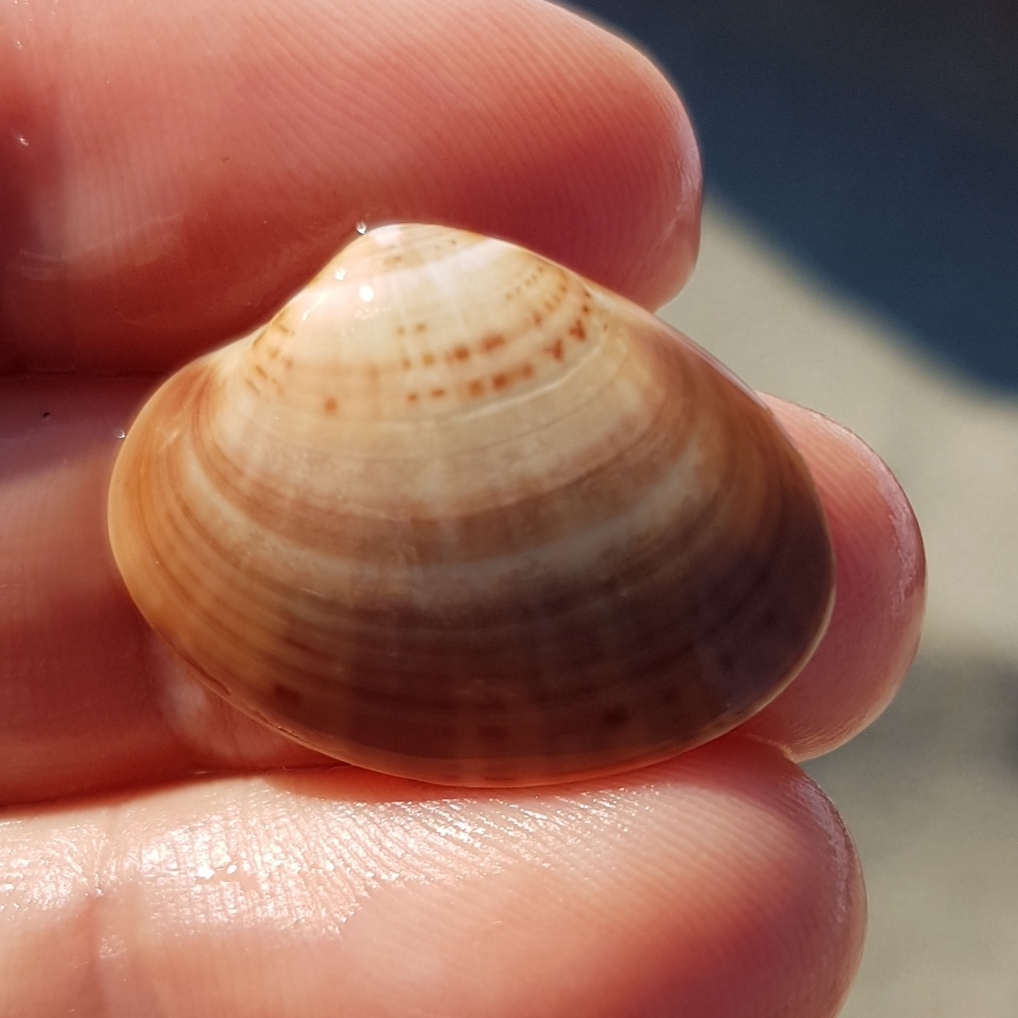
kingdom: Animalia
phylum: Mollusca
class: Bivalvia
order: Venerida
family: Veneridae
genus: Callista
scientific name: Callista chione
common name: Brown venus
